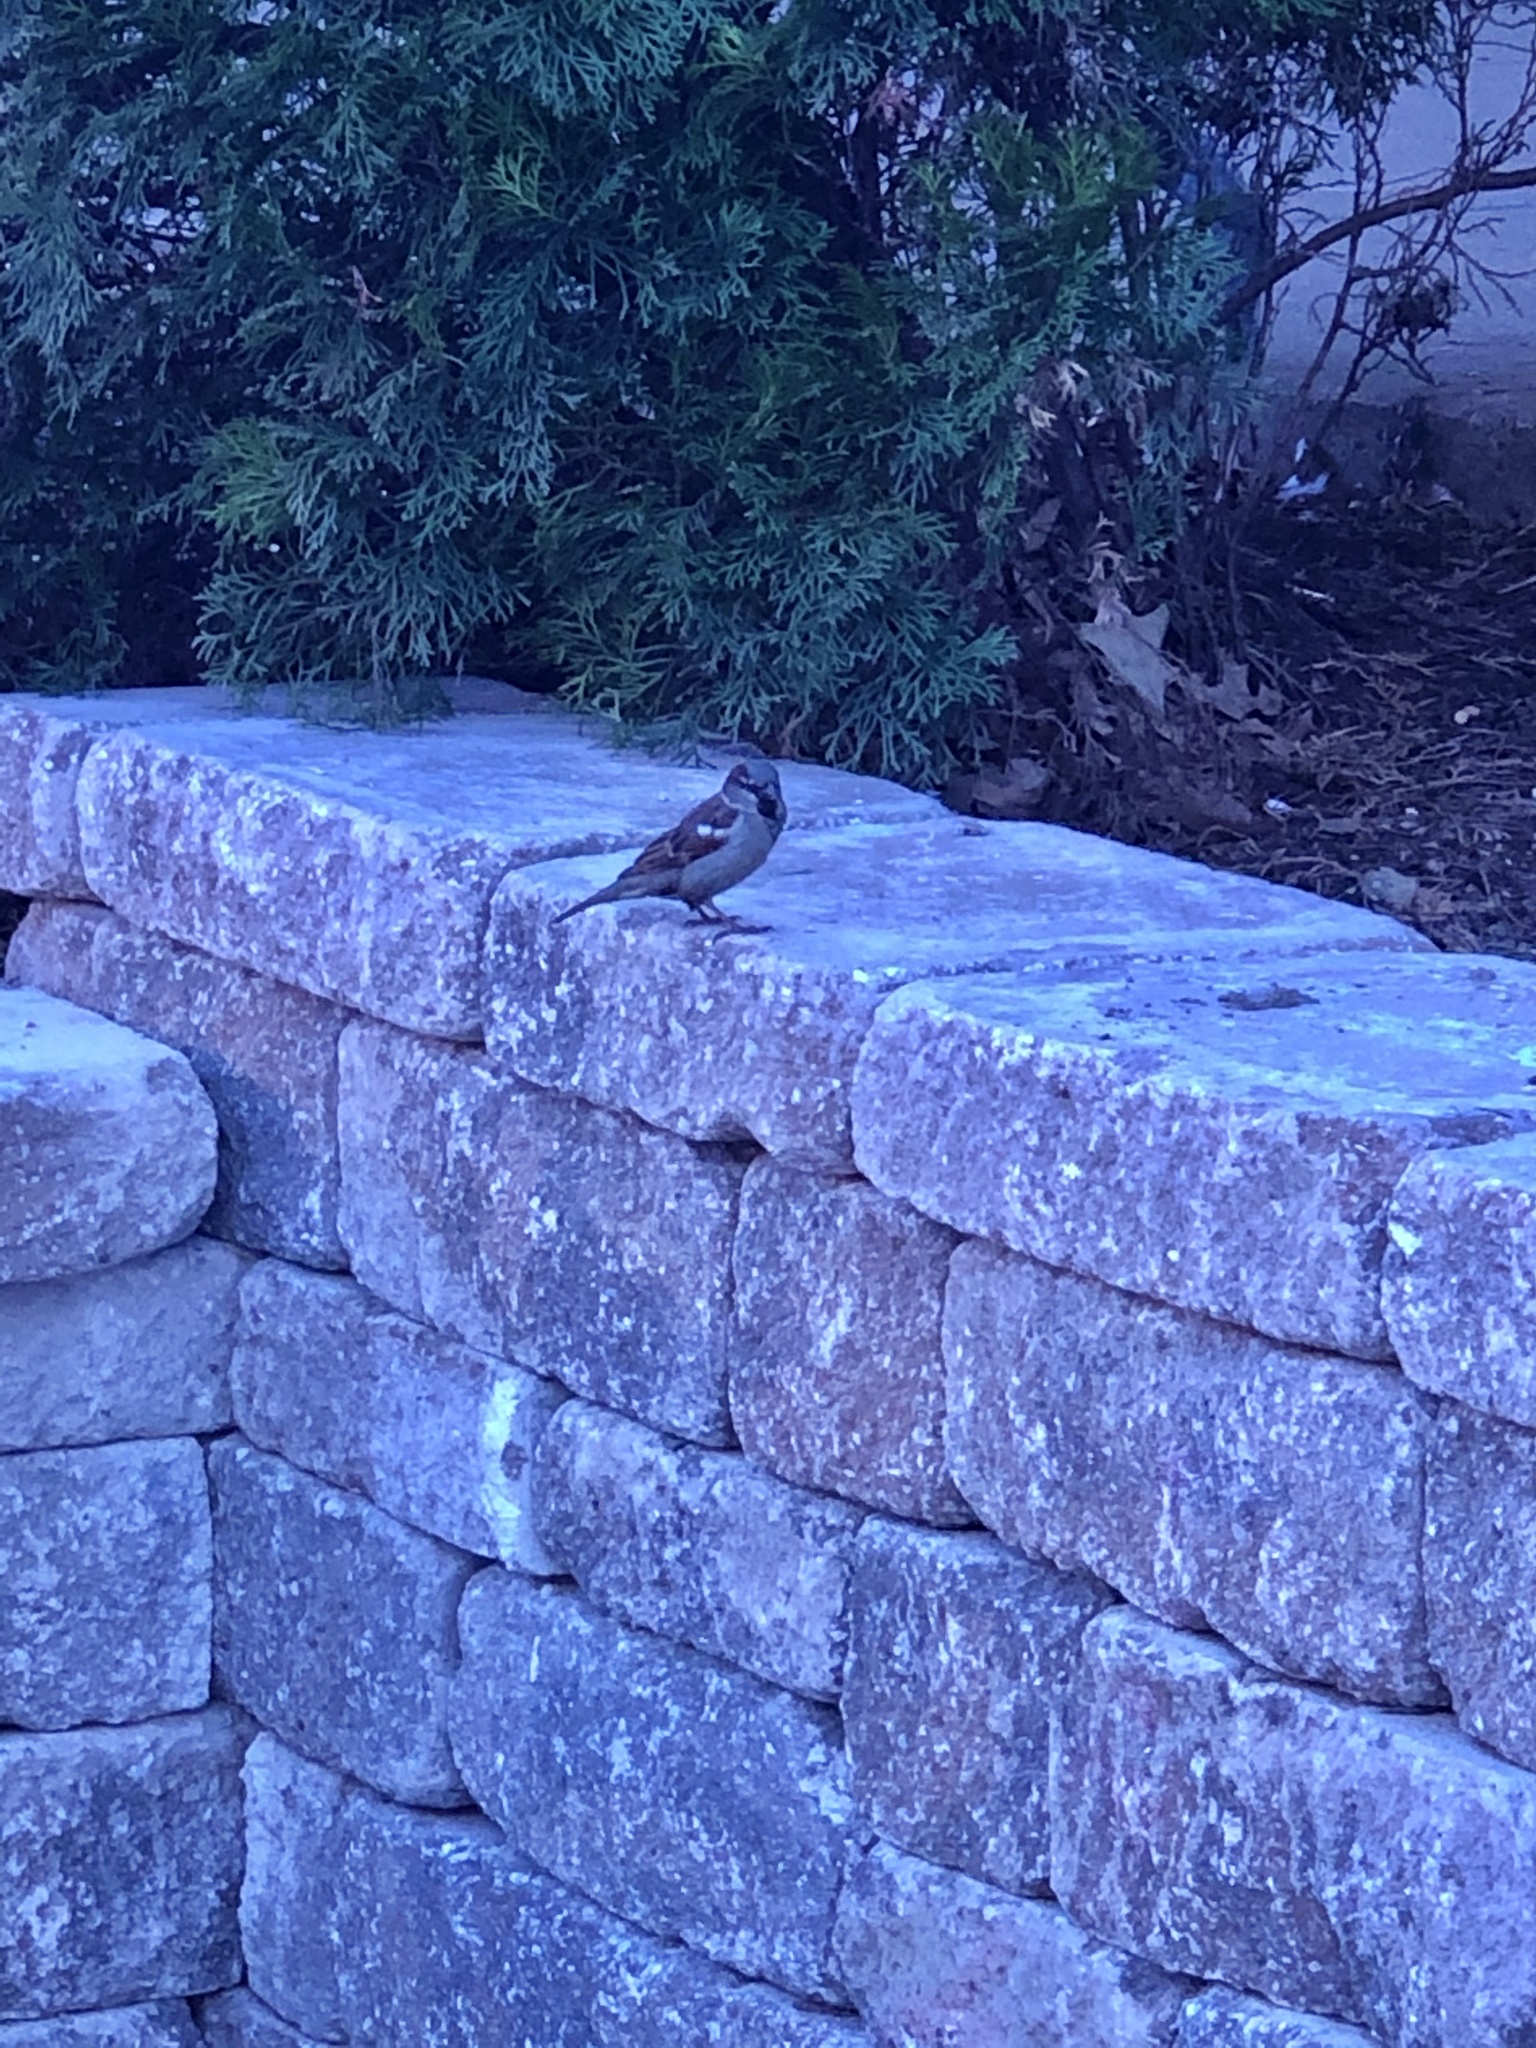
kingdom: Animalia
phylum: Chordata
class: Aves
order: Passeriformes
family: Passeridae
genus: Passer
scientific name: Passer domesticus
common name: House sparrow
